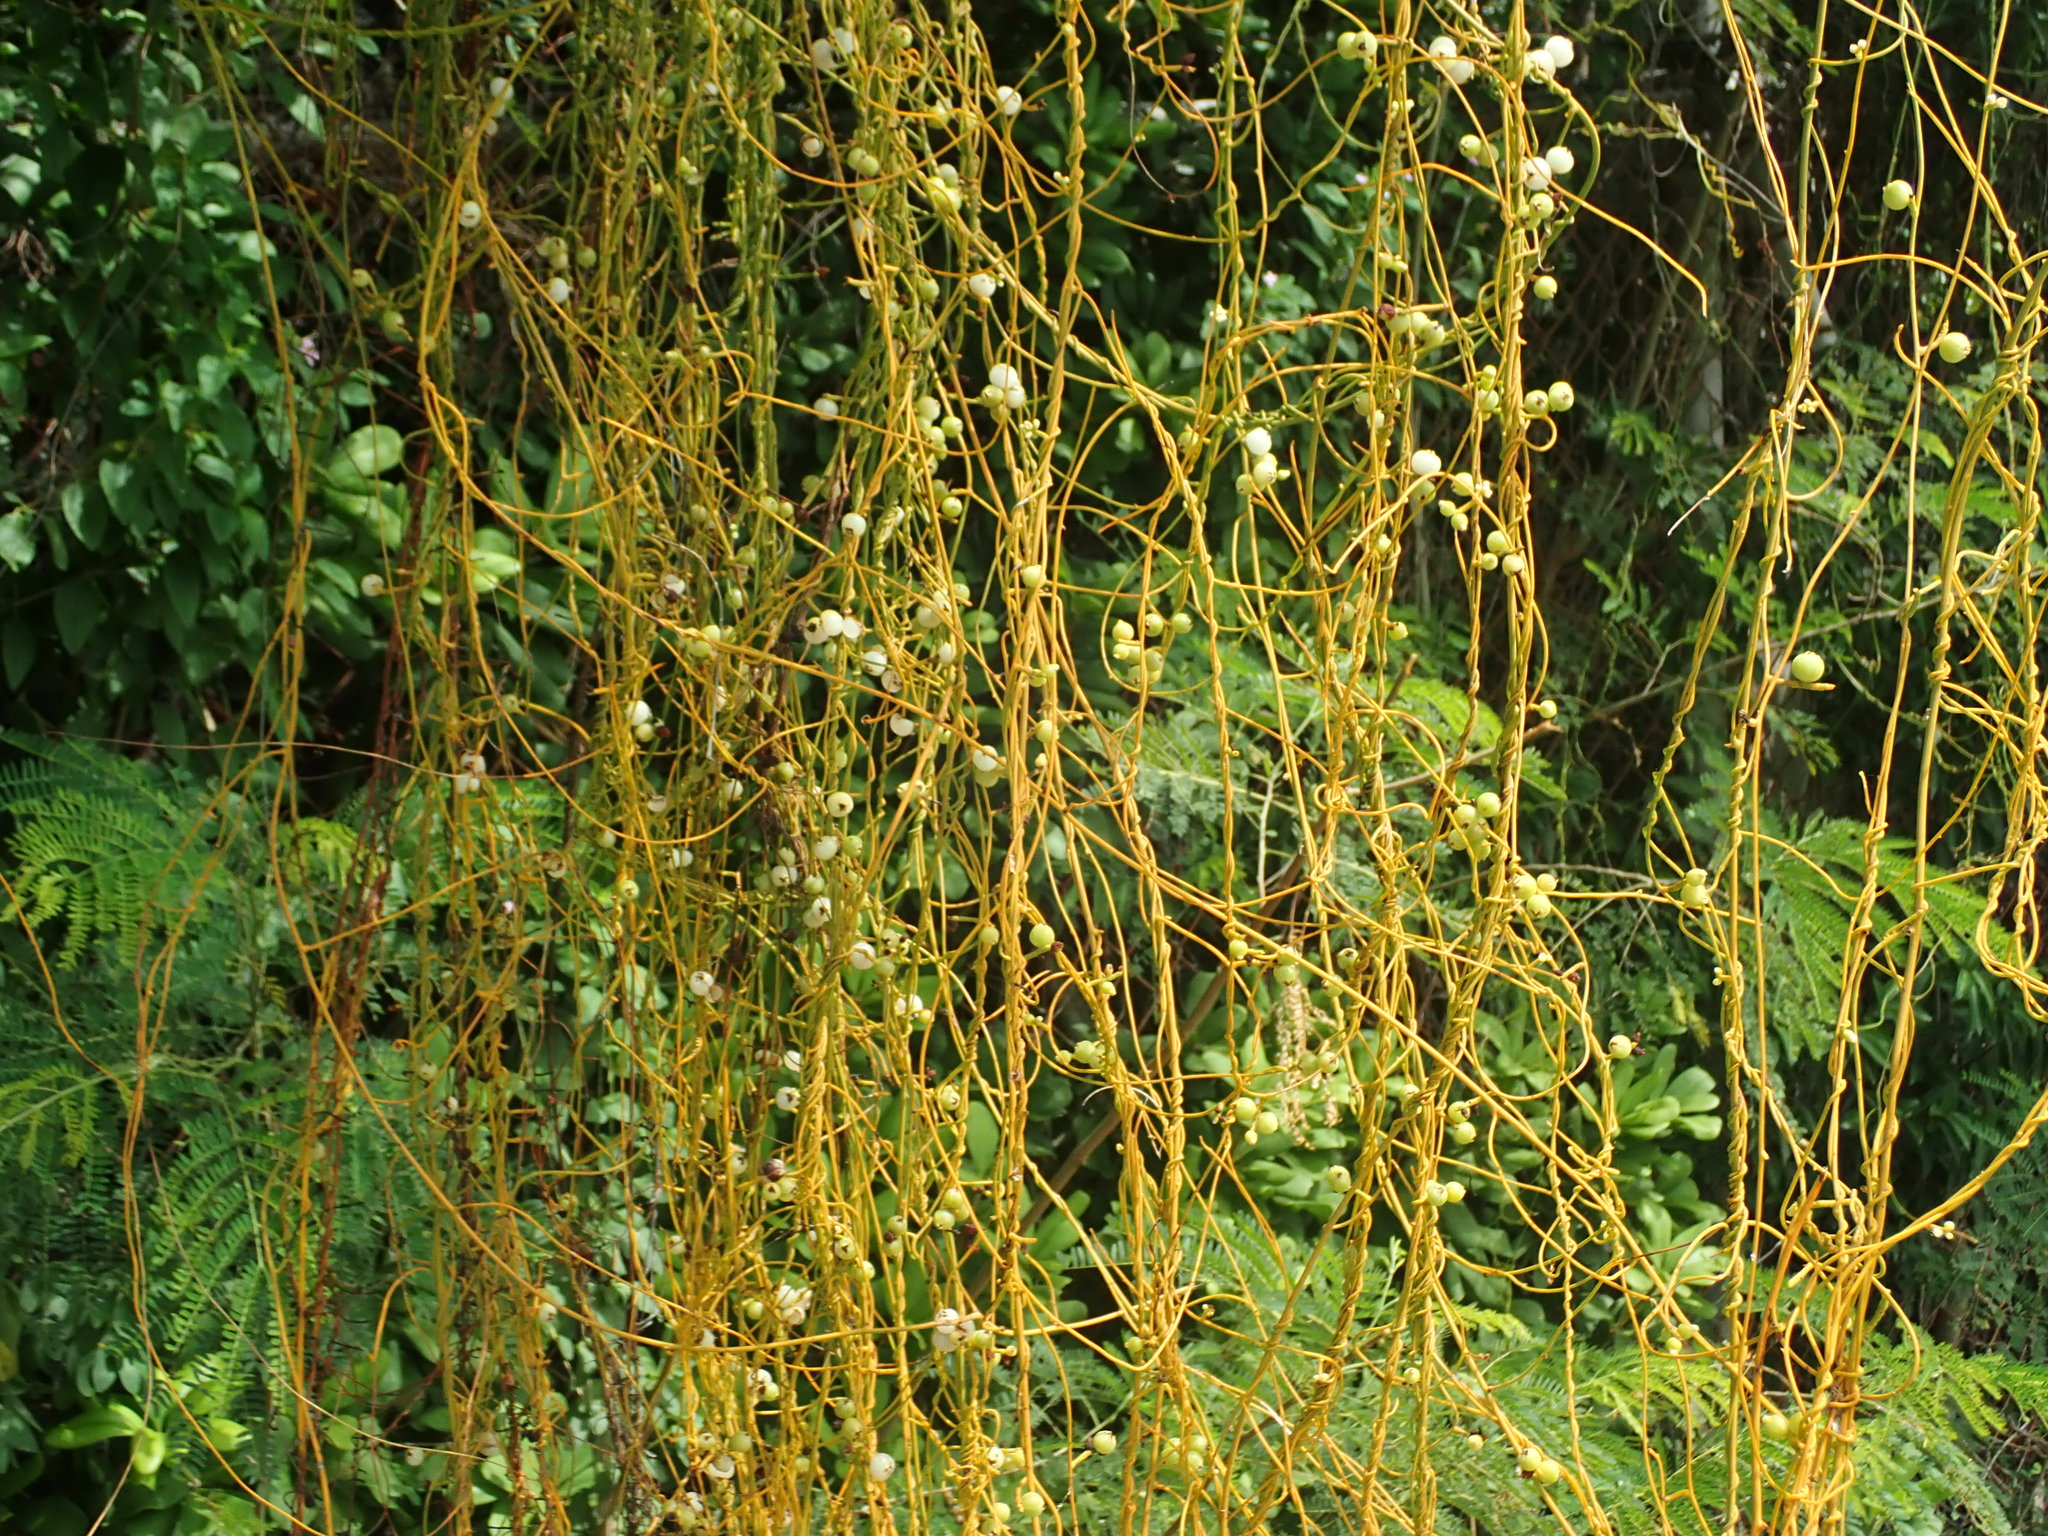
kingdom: Plantae
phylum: Tracheophyta
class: Magnoliopsida
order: Laurales
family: Lauraceae
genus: Cassytha
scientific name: Cassytha filiformis
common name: Dodder-laurel
